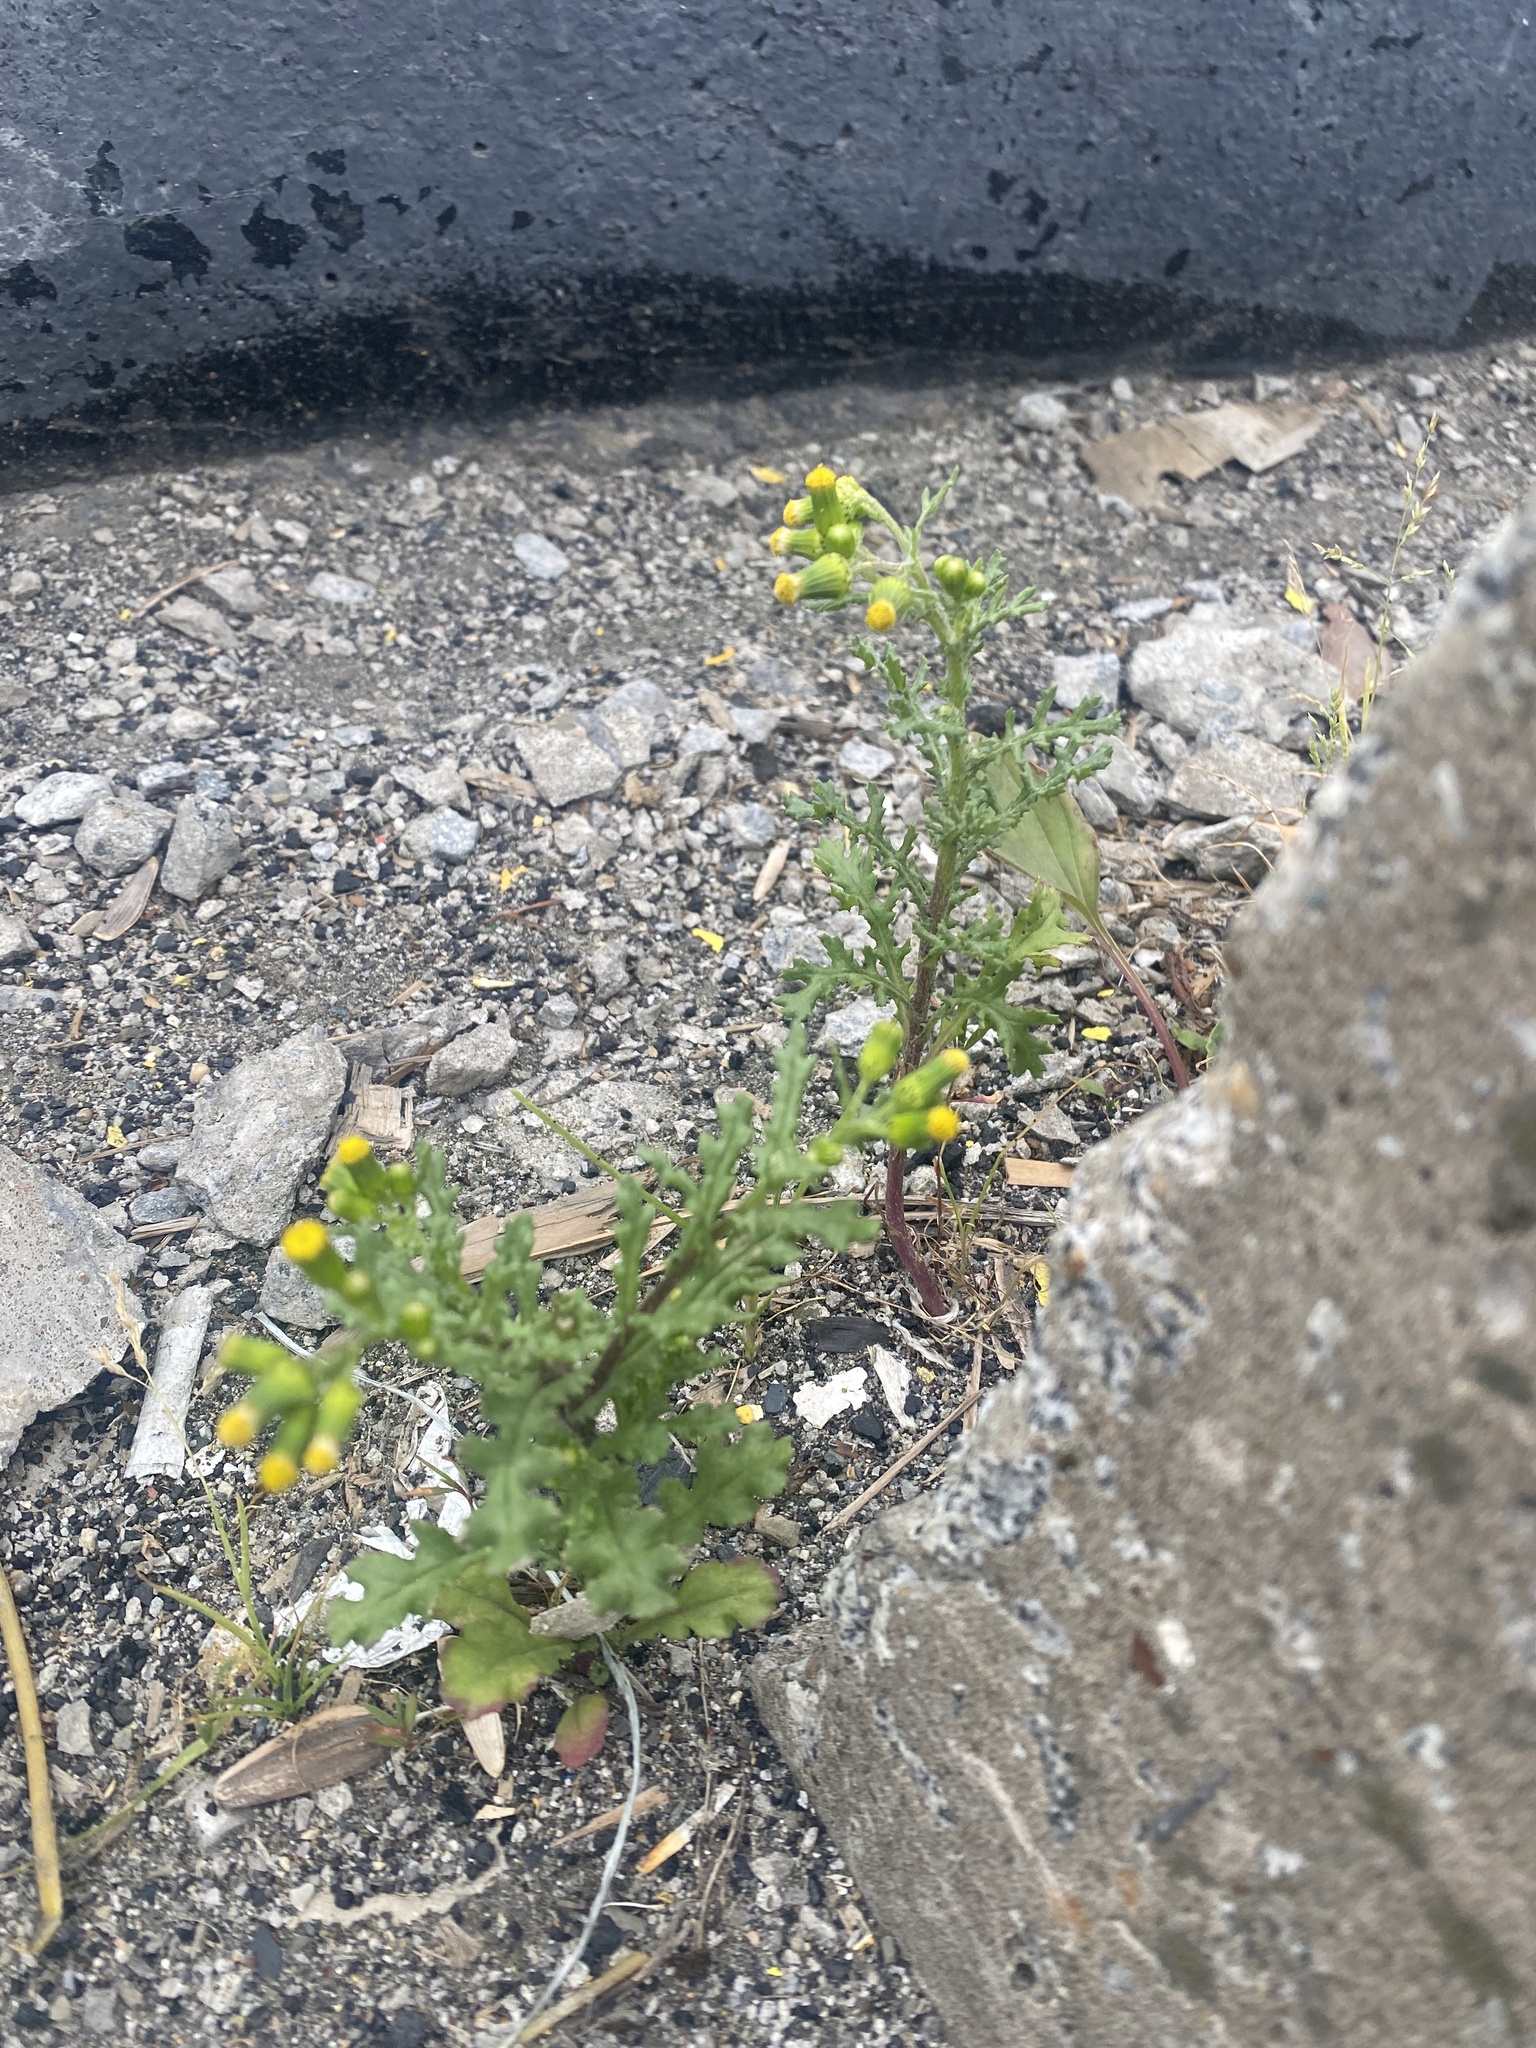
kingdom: Plantae
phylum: Tracheophyta
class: Magnoliopsida
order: Asterales
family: Asteraceae
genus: Senecio
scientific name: Senecio vulgaris
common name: Old-man-in-the-spring
